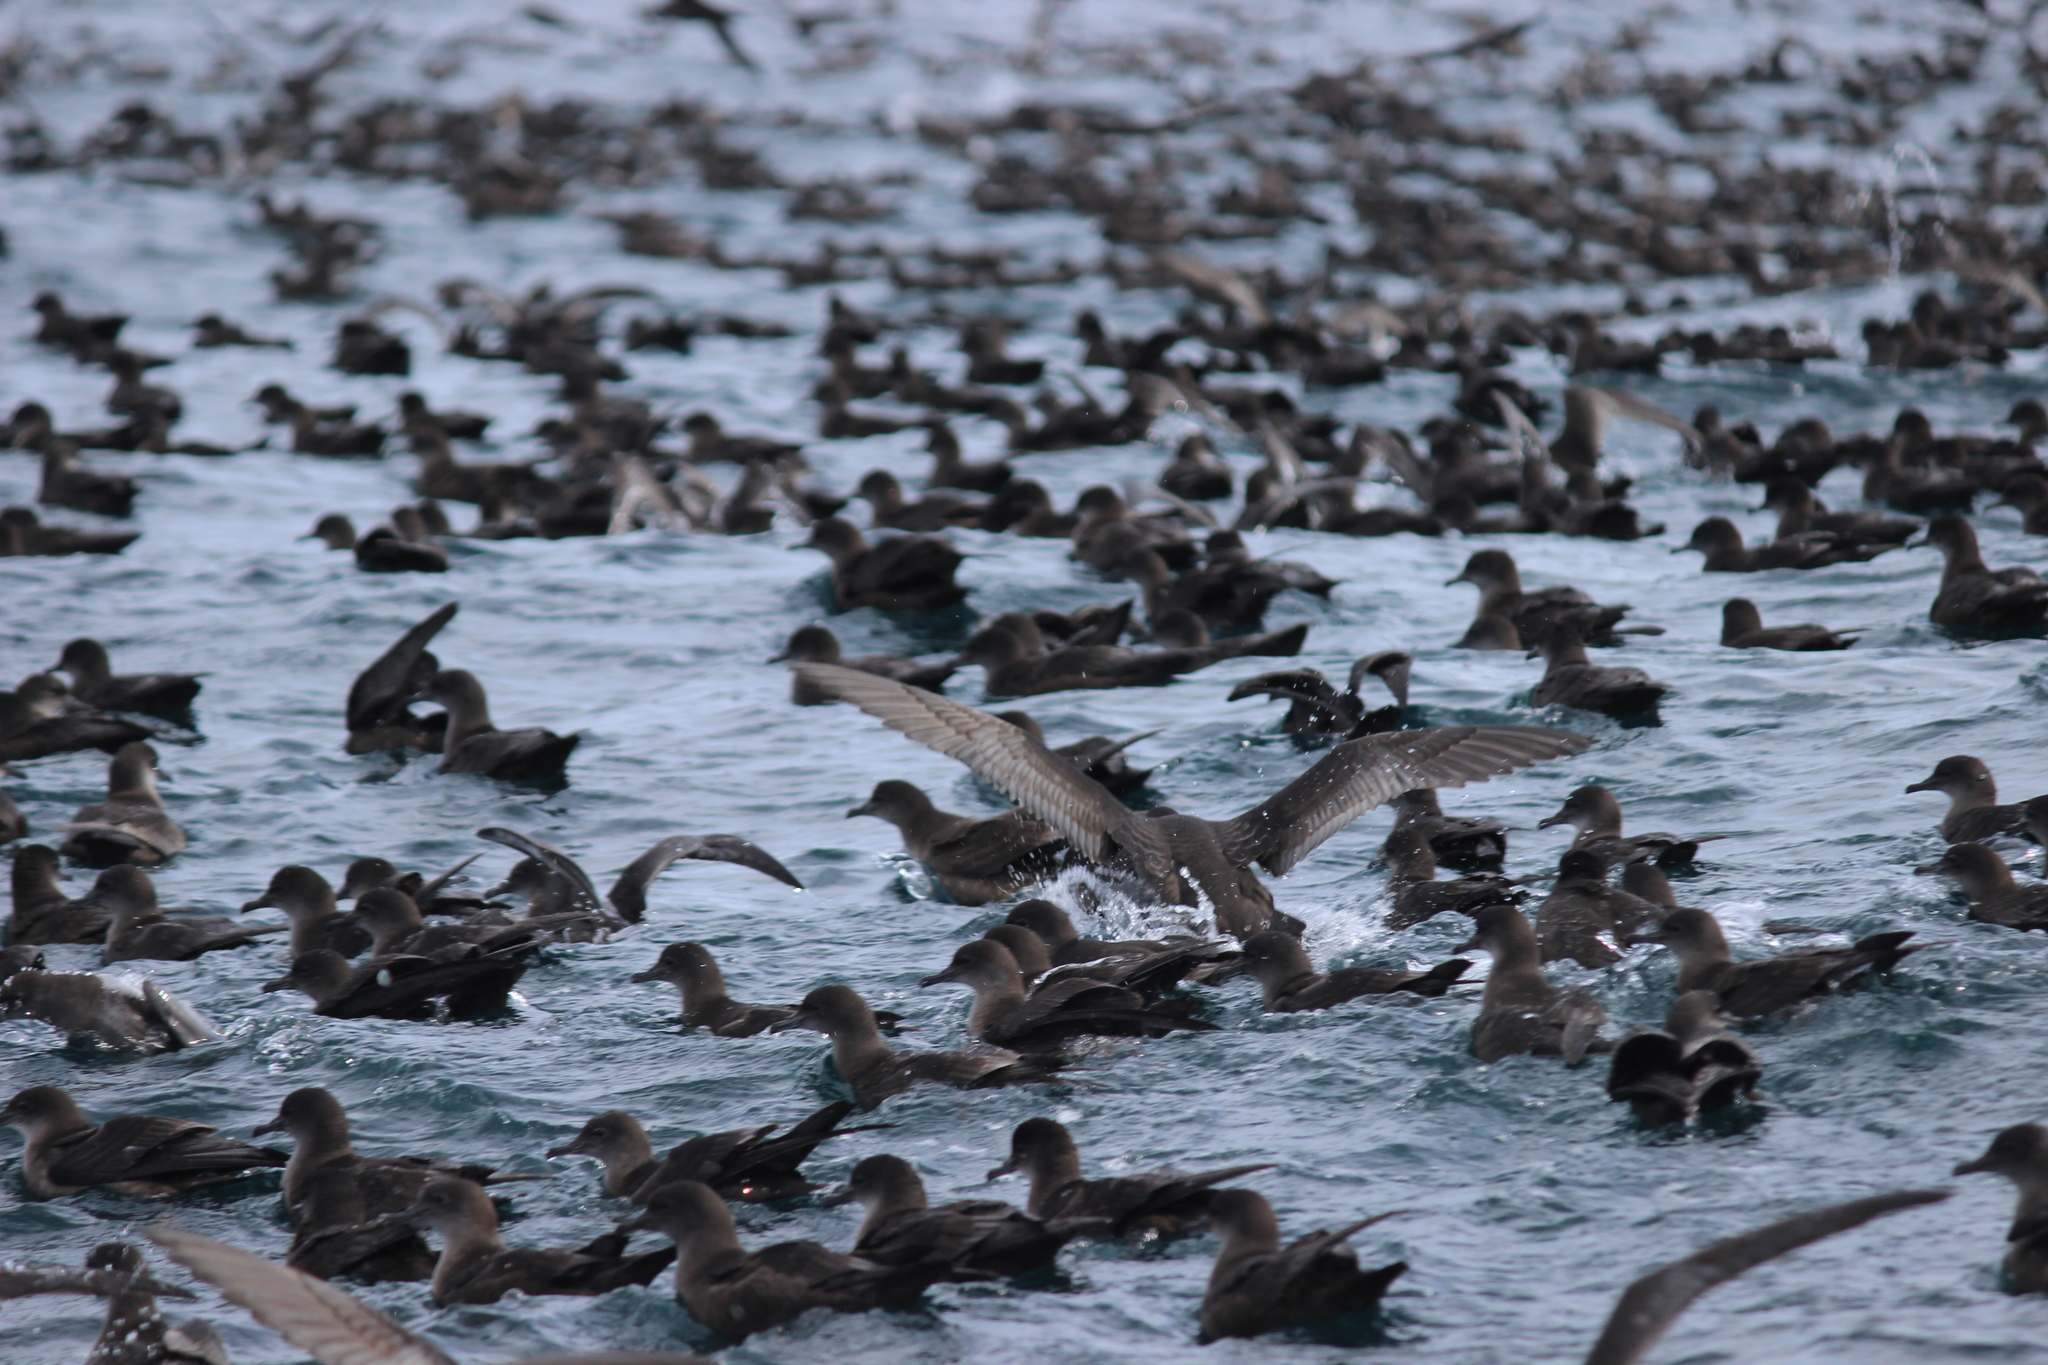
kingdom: Animalia
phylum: Chordata
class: Aves
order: Procellariiformes
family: Procellariidae
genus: Puffinus
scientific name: Puffinus tenuirostris
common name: Short-tailed shearwater
